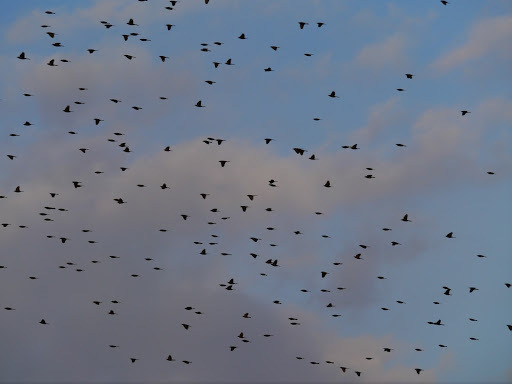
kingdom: Animalia
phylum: Chordata
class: Aves
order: Passeriformes
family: Icteridae
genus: Agelaius
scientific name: Agelaius phoeniceus
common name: Red-winged blackbird
